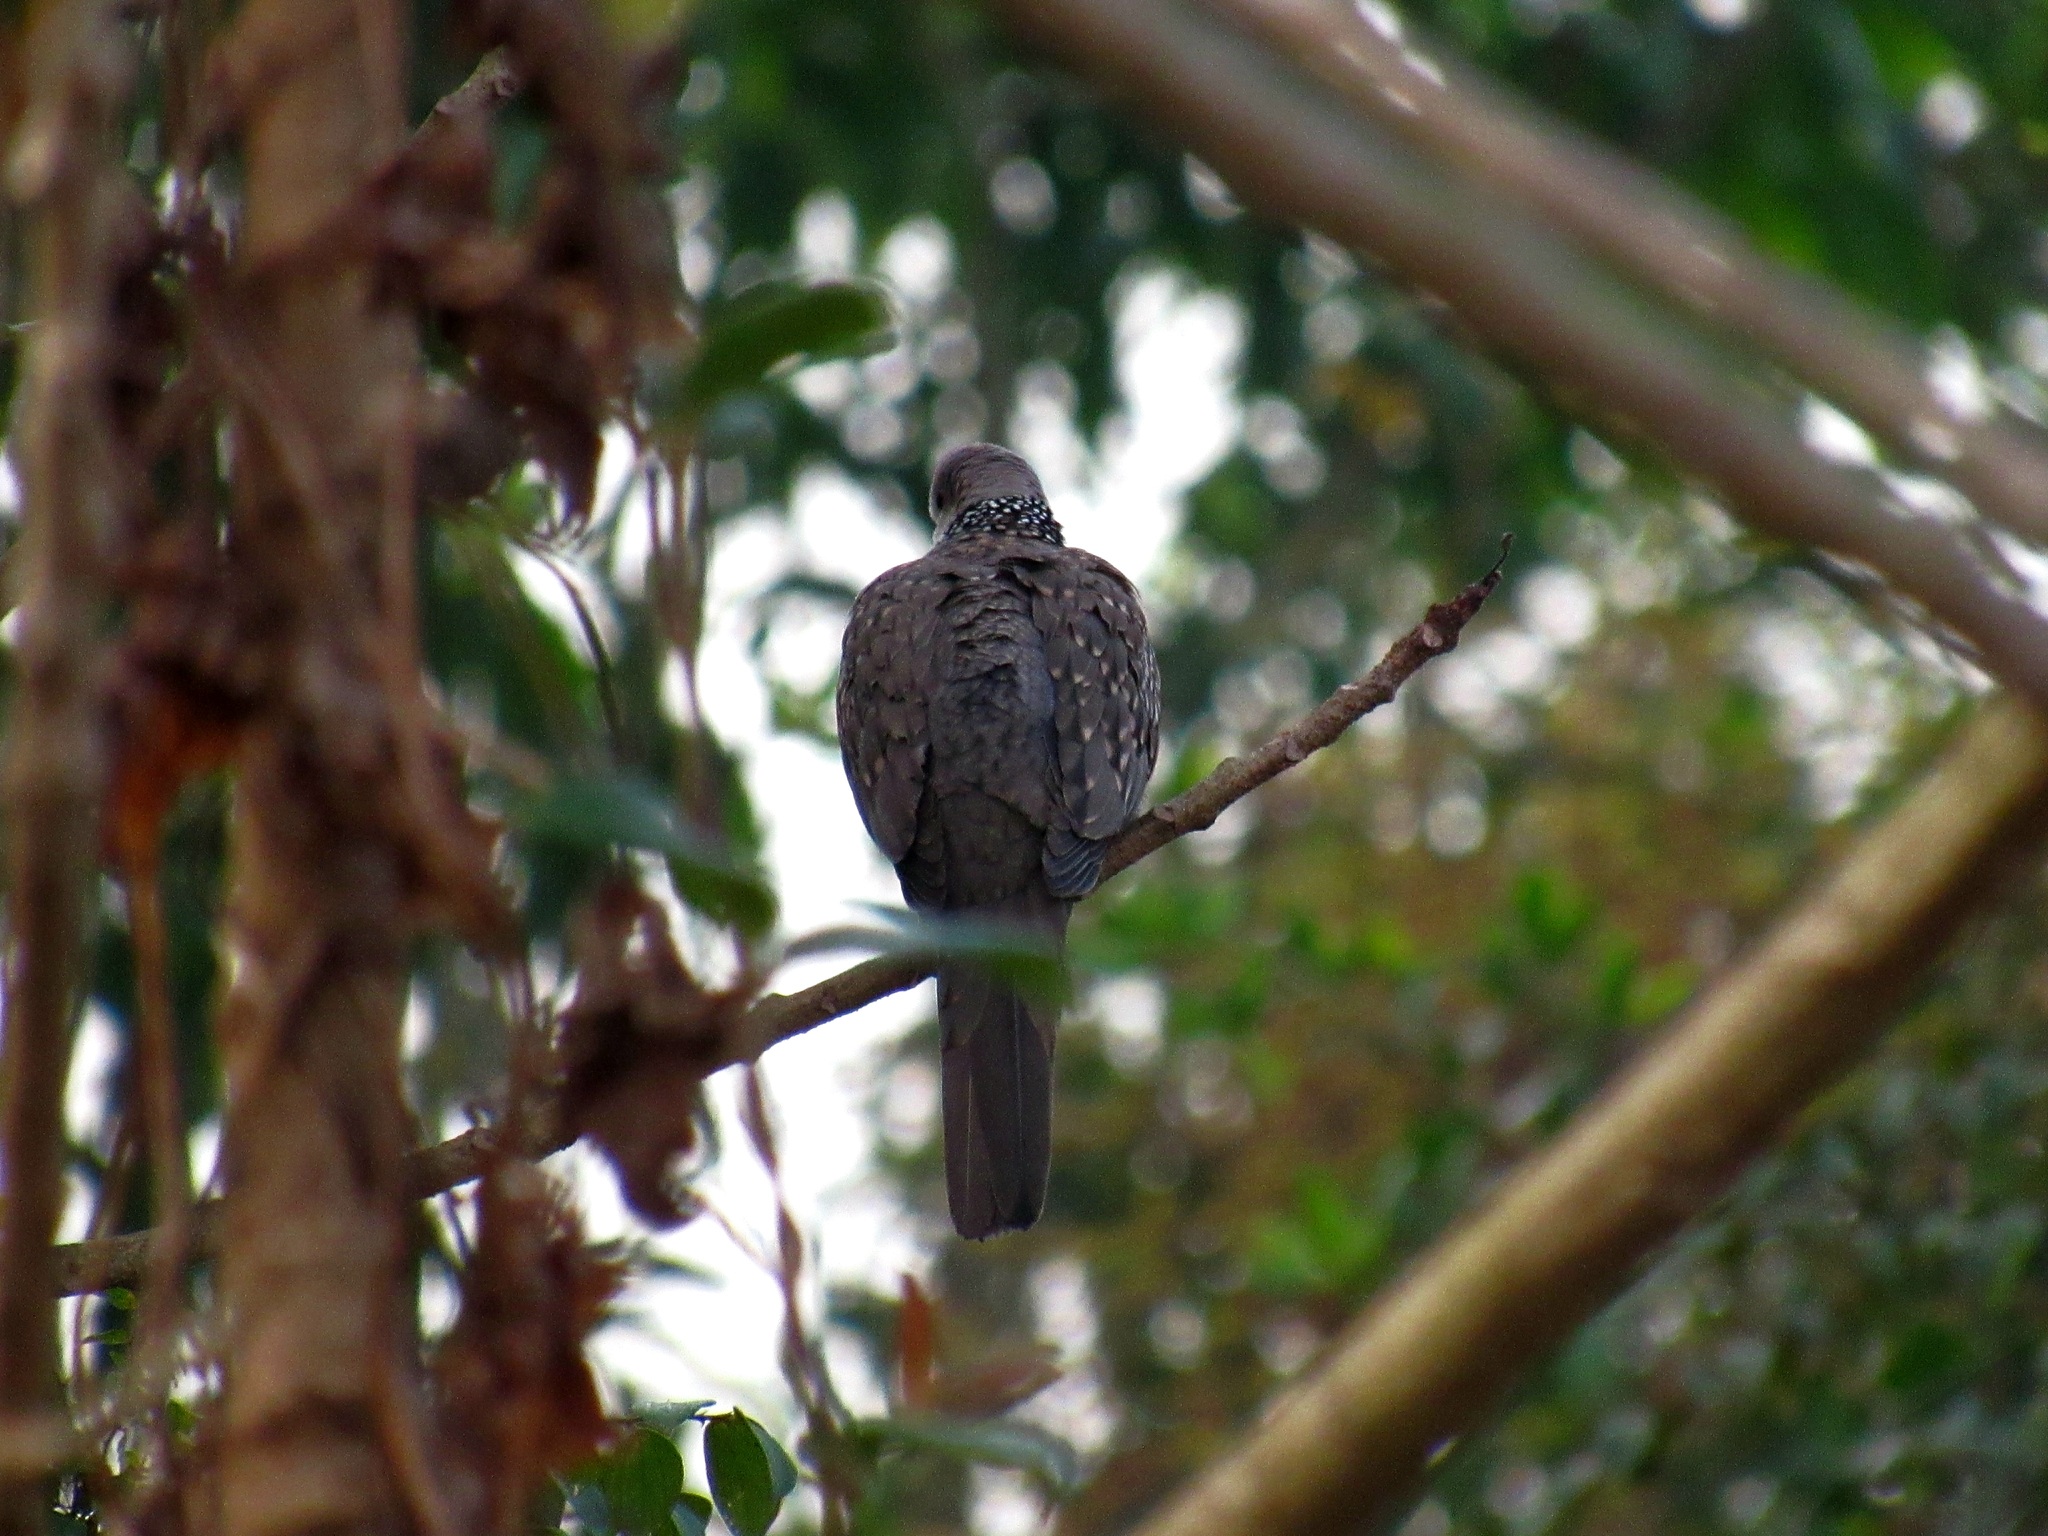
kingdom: Animalia
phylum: Chordata
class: Aves
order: Columbiformes
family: Columbidae
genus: Spilopelia
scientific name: Spilopelia chinensis
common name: Spotted dove
